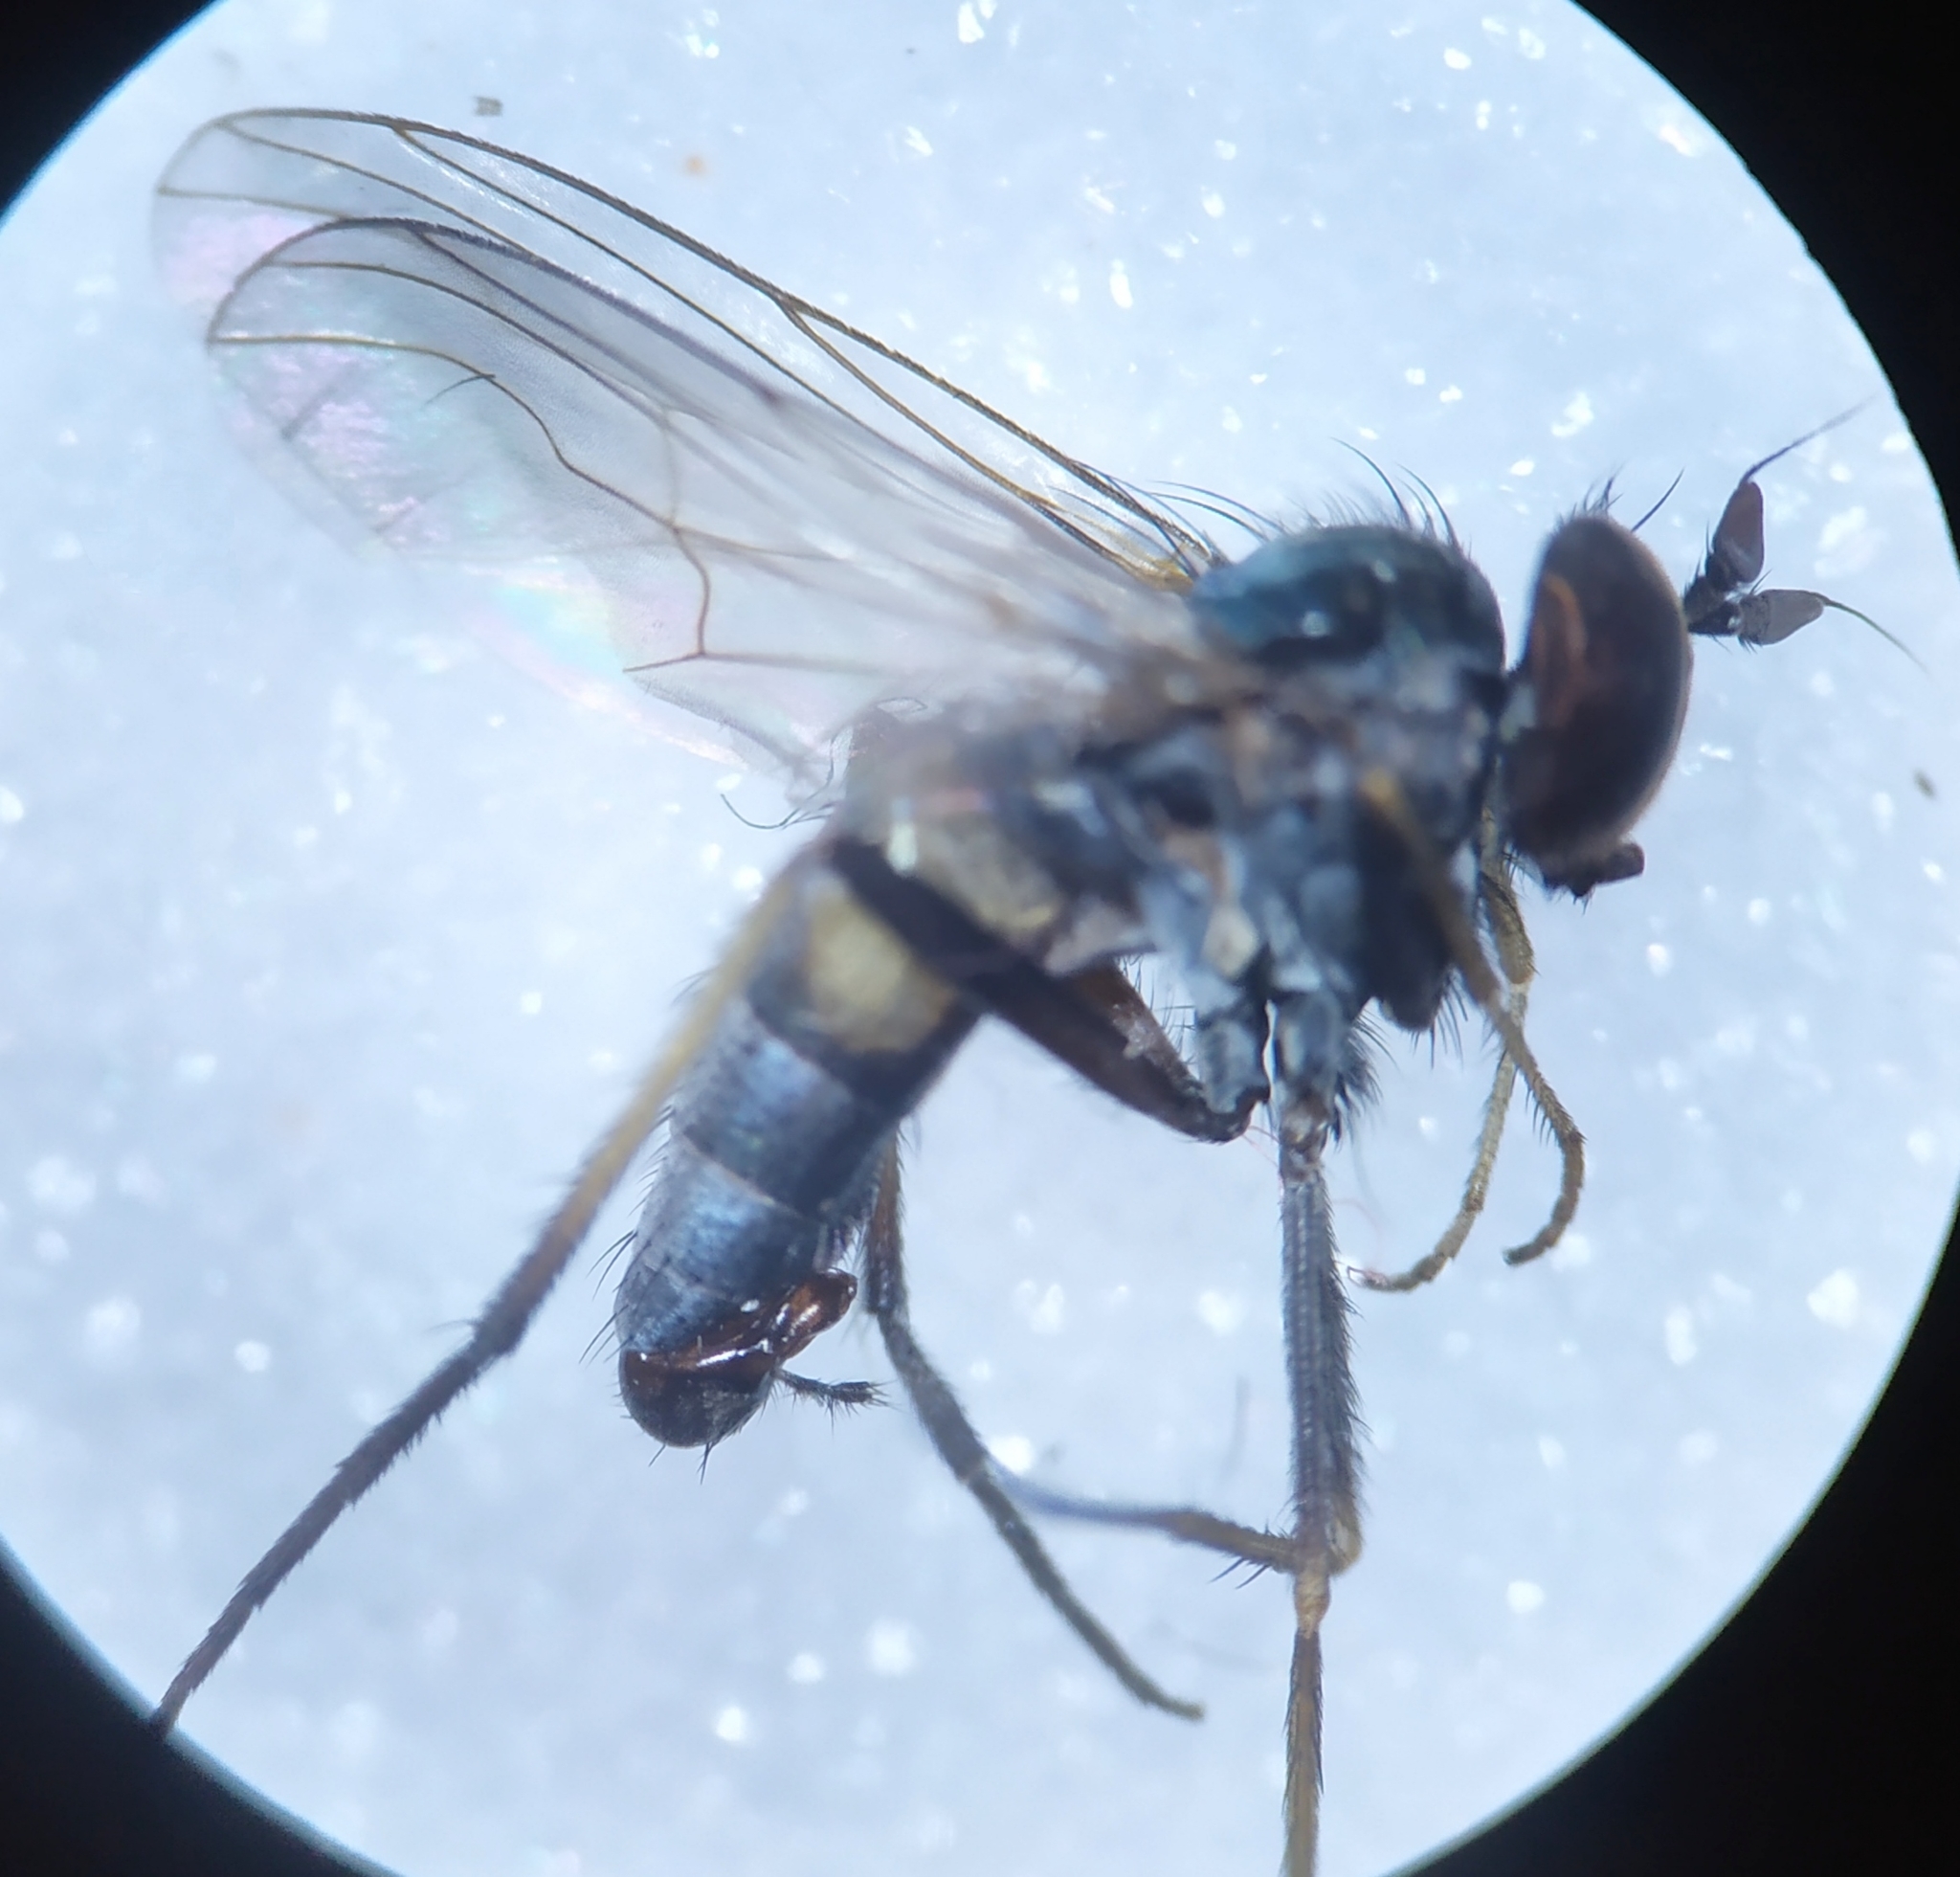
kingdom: Animalia
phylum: Arthropoda
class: Insecta
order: Diptera
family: Dolichopodidae
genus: Argyra
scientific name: Argyra diaphana
